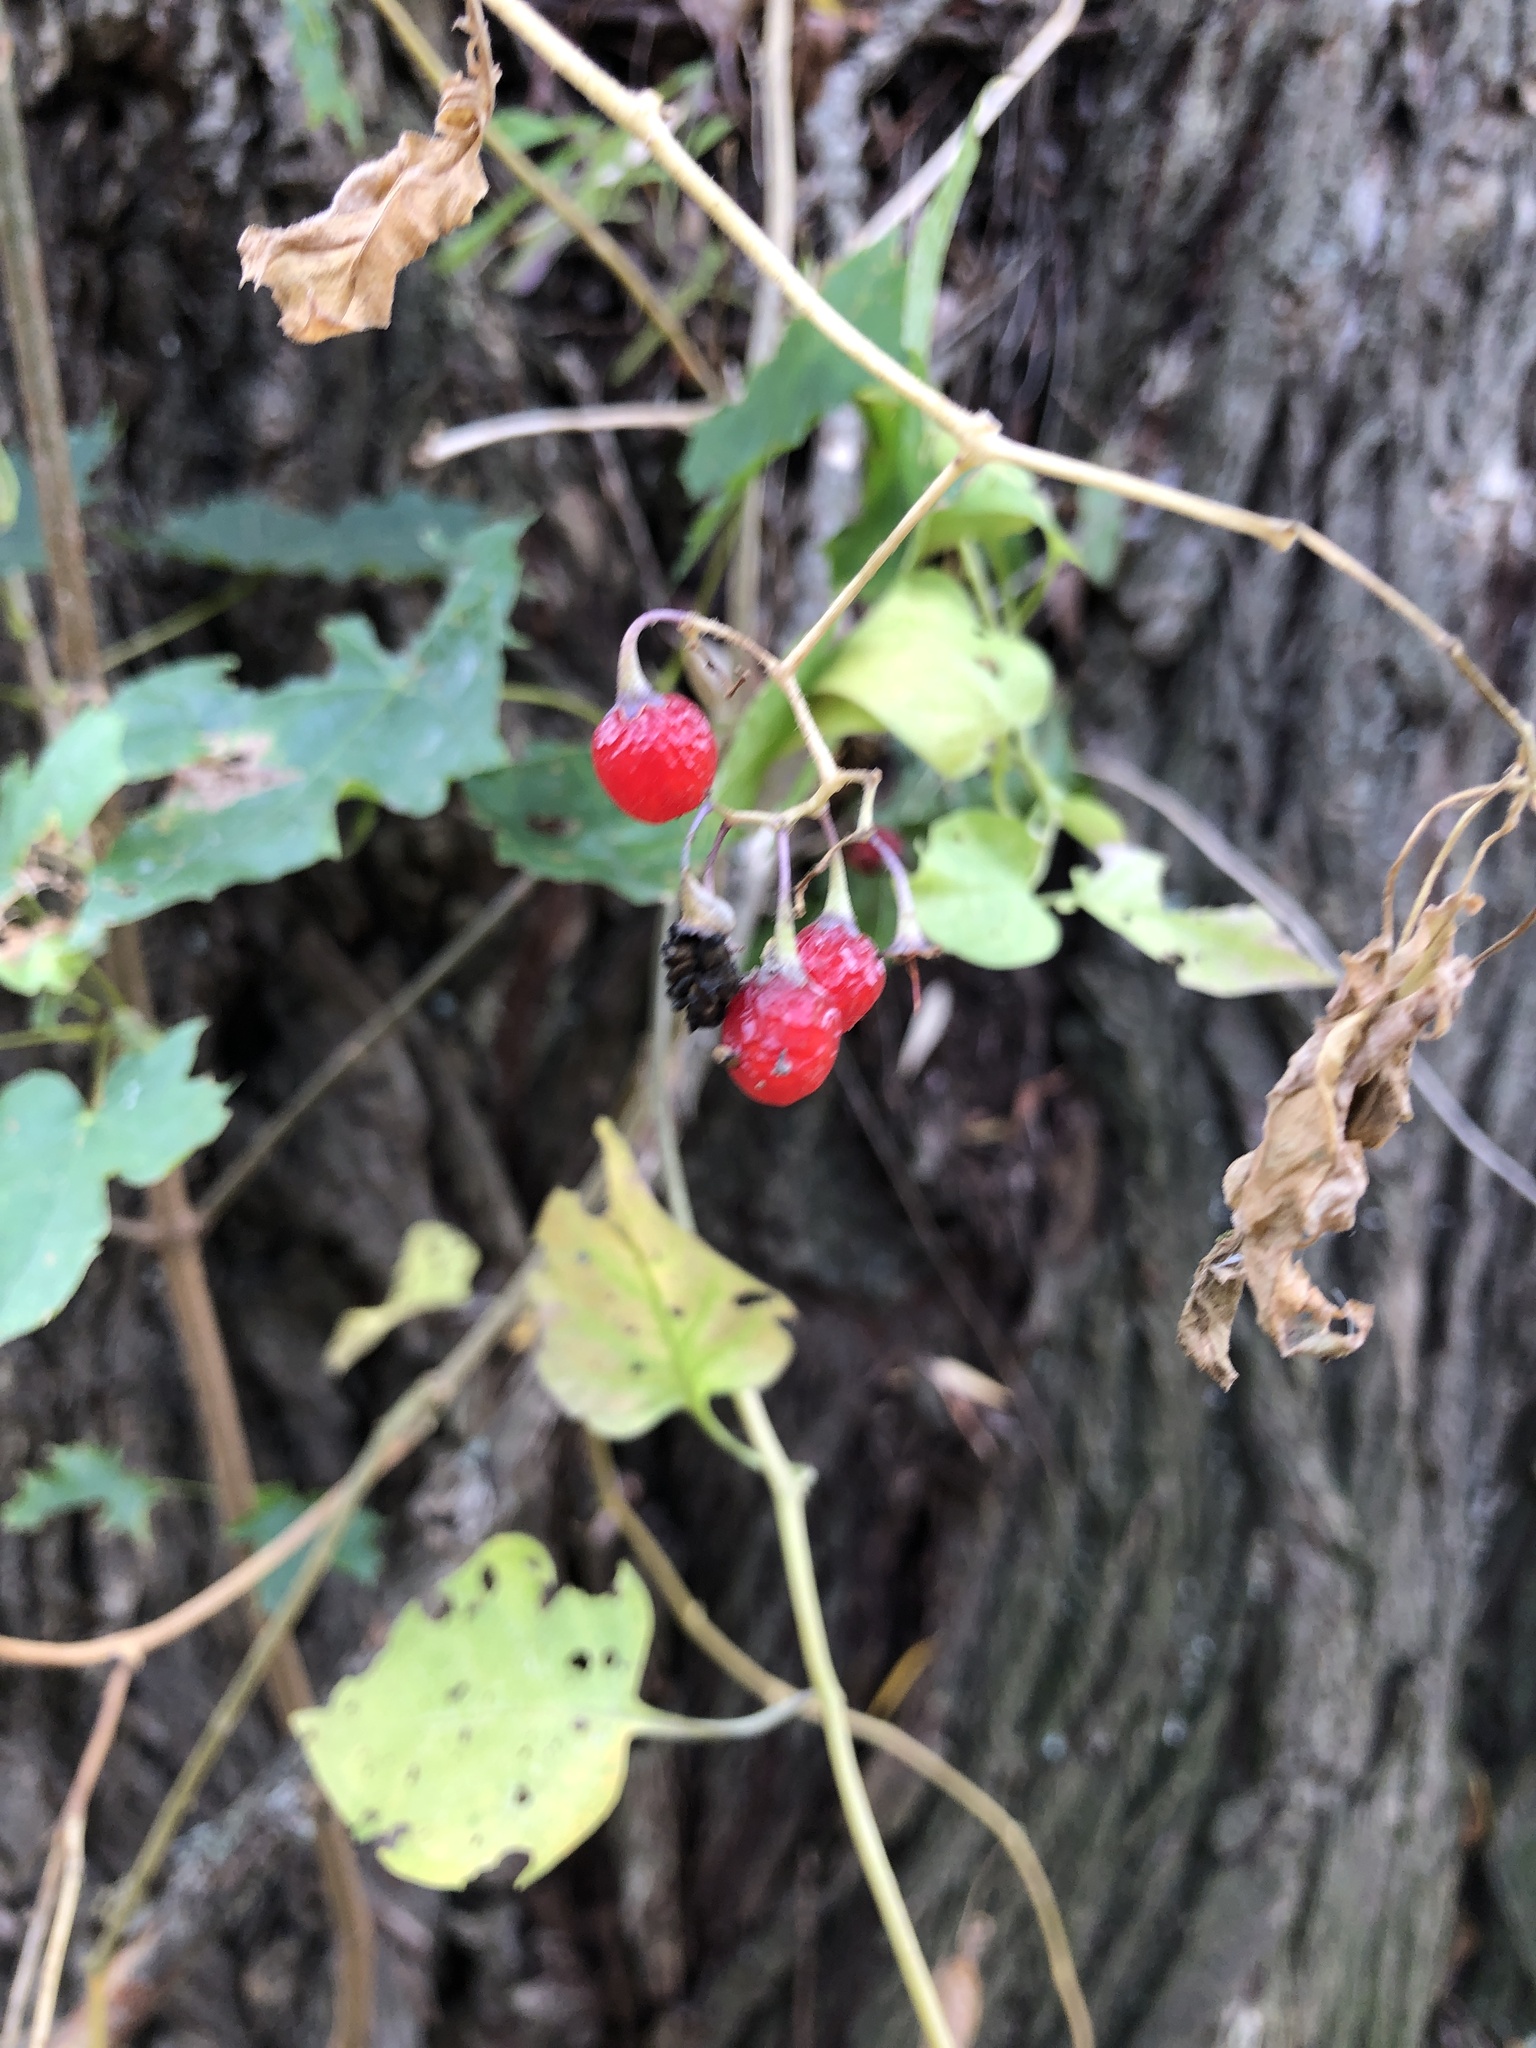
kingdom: Plantae
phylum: Tracheophyta
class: Magnoliopsida
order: Solanales
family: Solanaceae
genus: Solanum
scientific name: Solanum dulcamara
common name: Climbing nightshade
